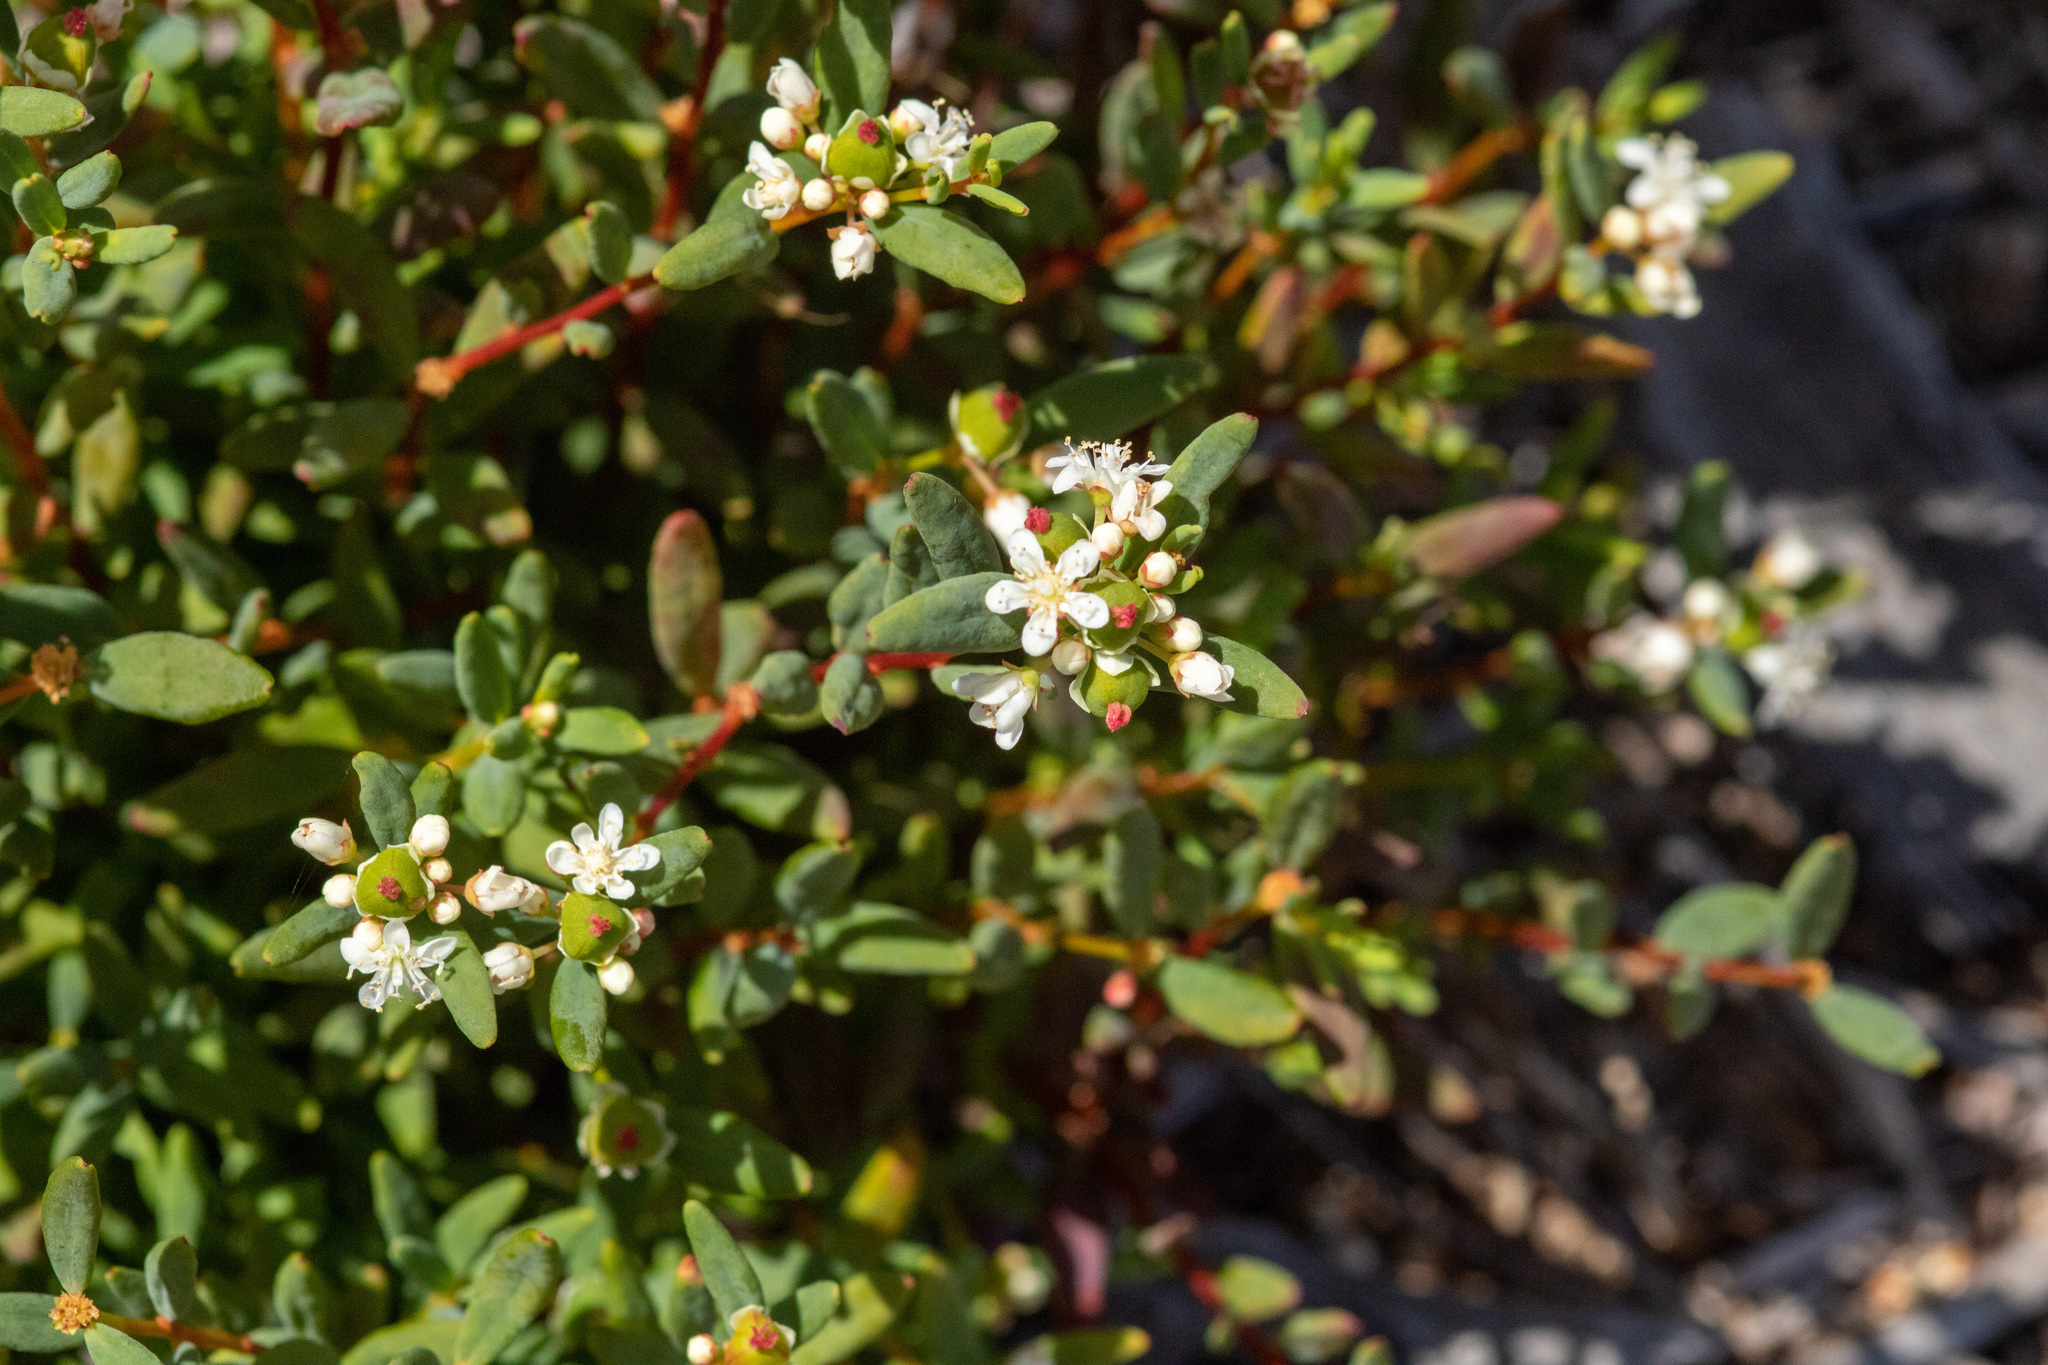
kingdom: Plantae
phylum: Tracheophyta
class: Magnoliopsida
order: Malpighiales
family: Euphorbiaceae
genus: Monotaxis
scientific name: Monotaxis bracteata
